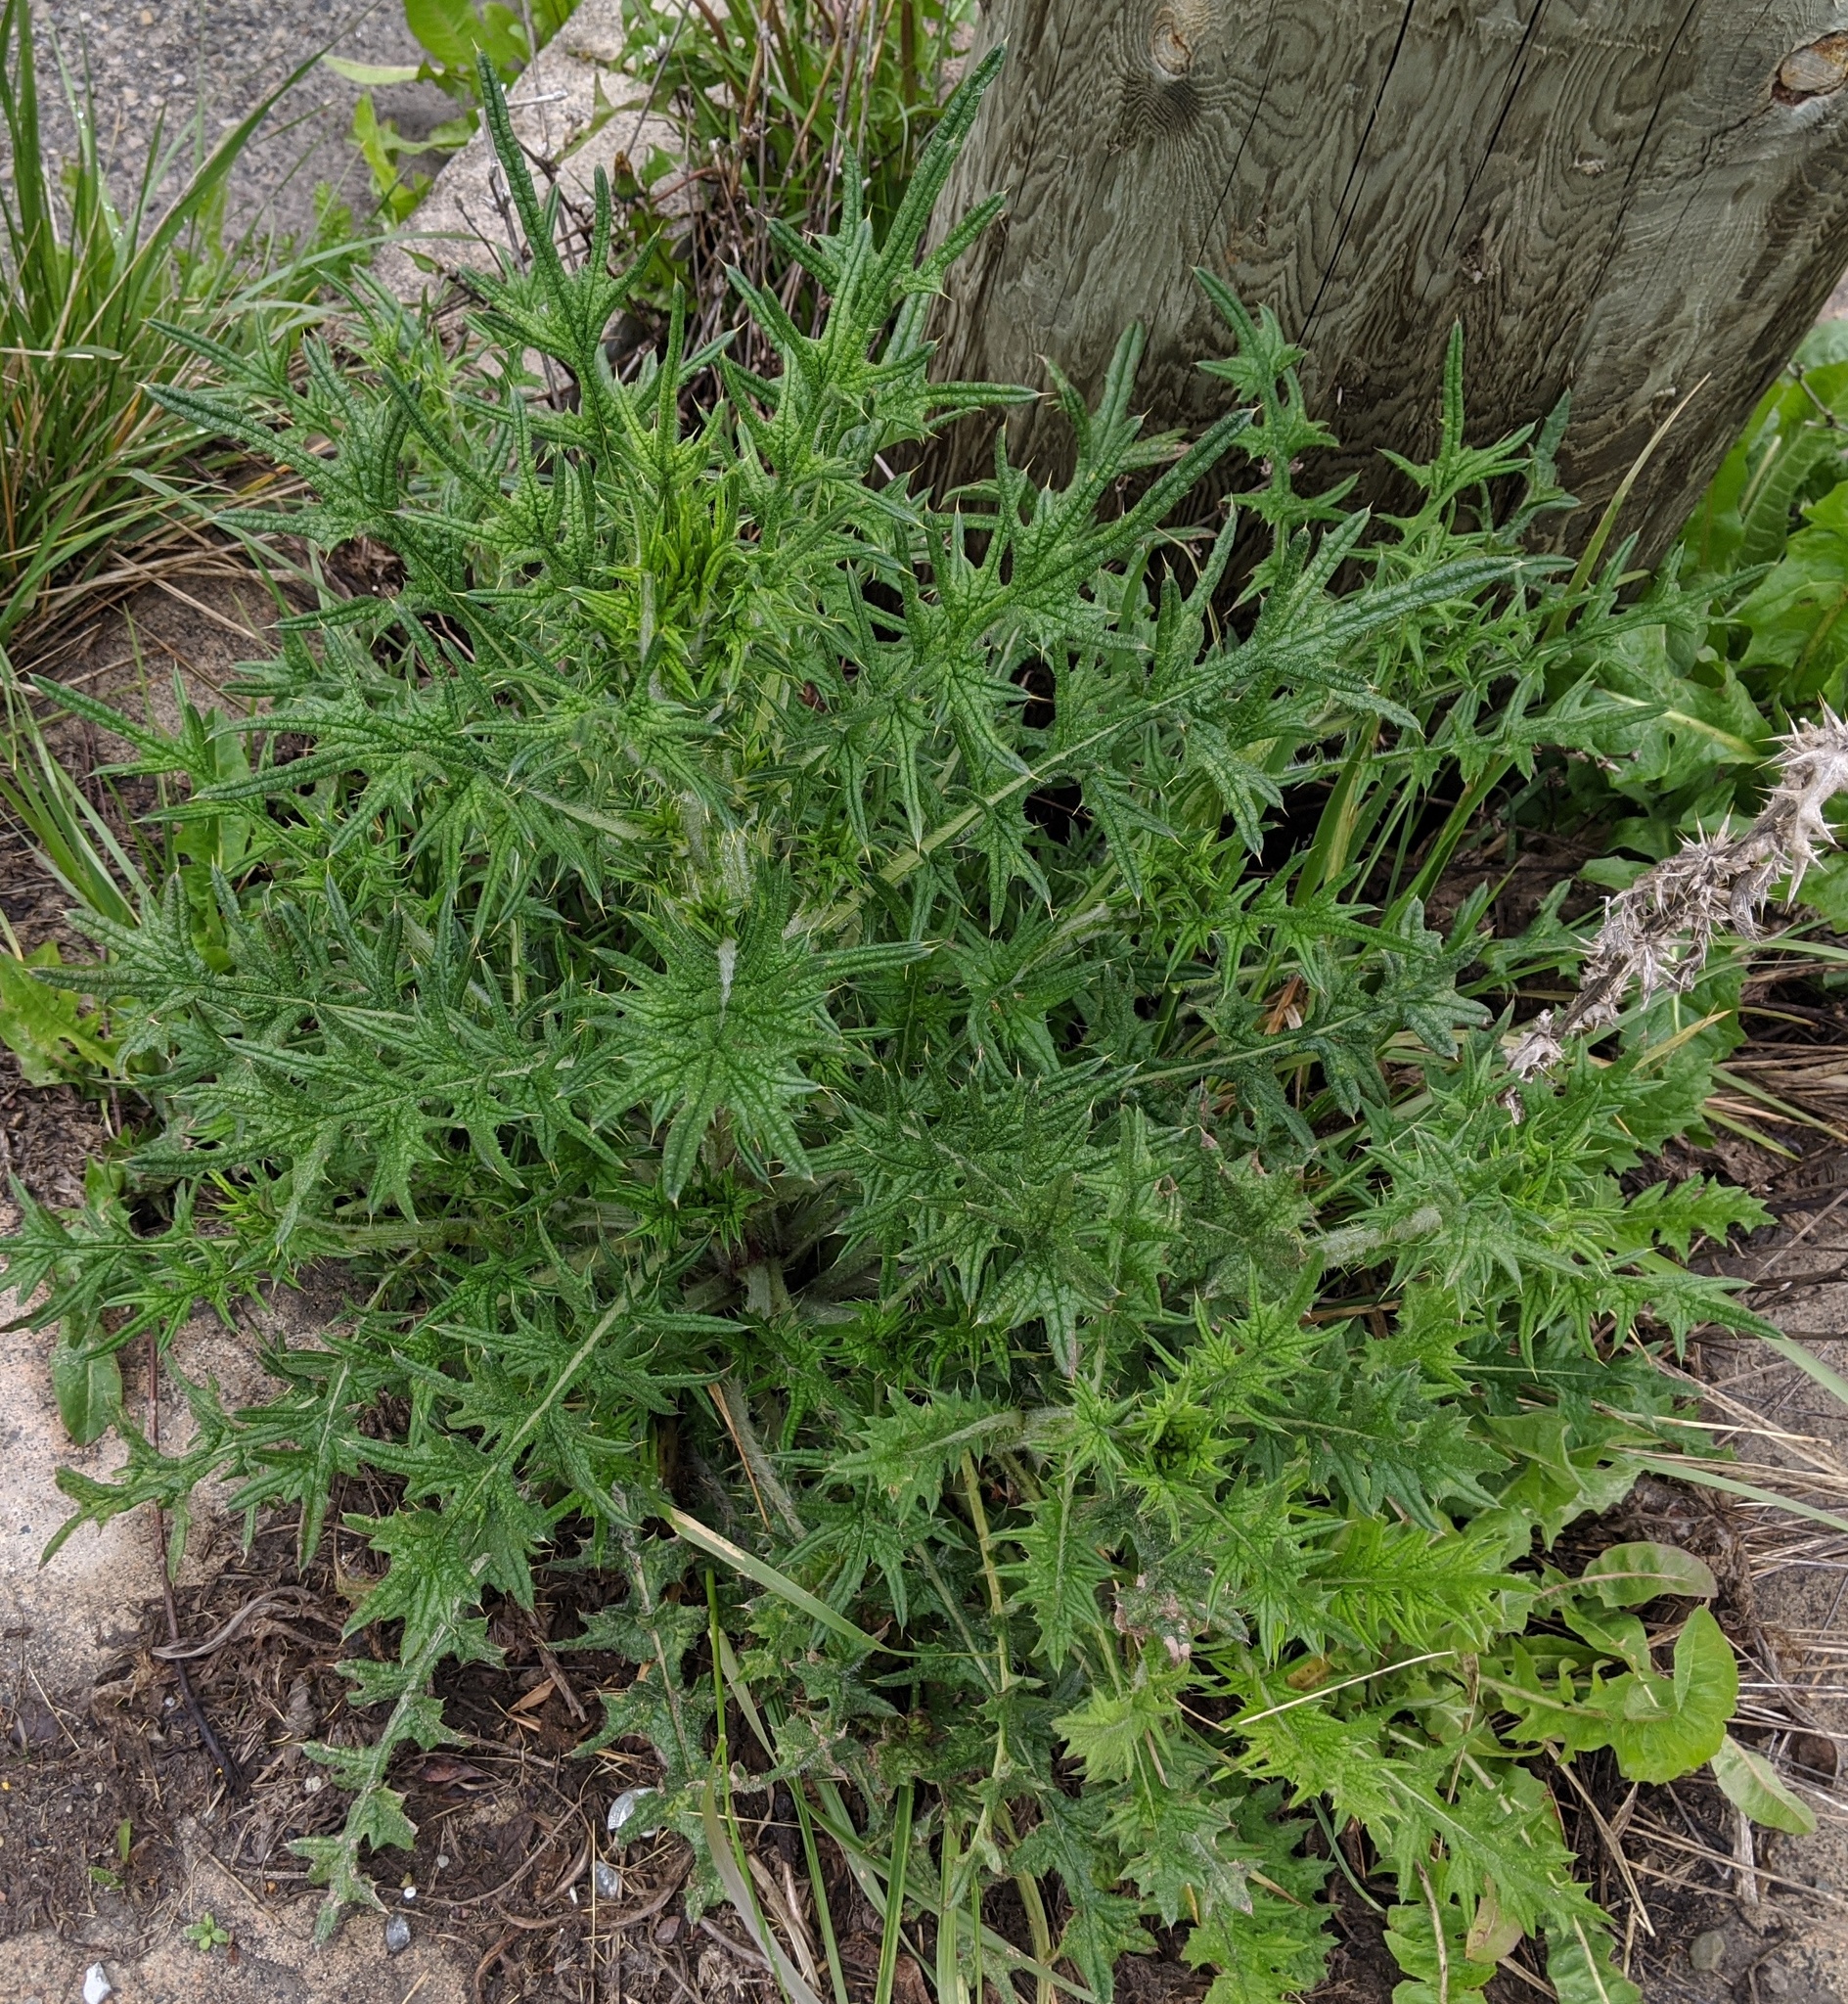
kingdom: Plantae
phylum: Tracheophyta
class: Magnoliopsida
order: Asterales
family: Asteraceae
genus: Cirsium
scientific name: Cirsium vulgare
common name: Bull thistle
